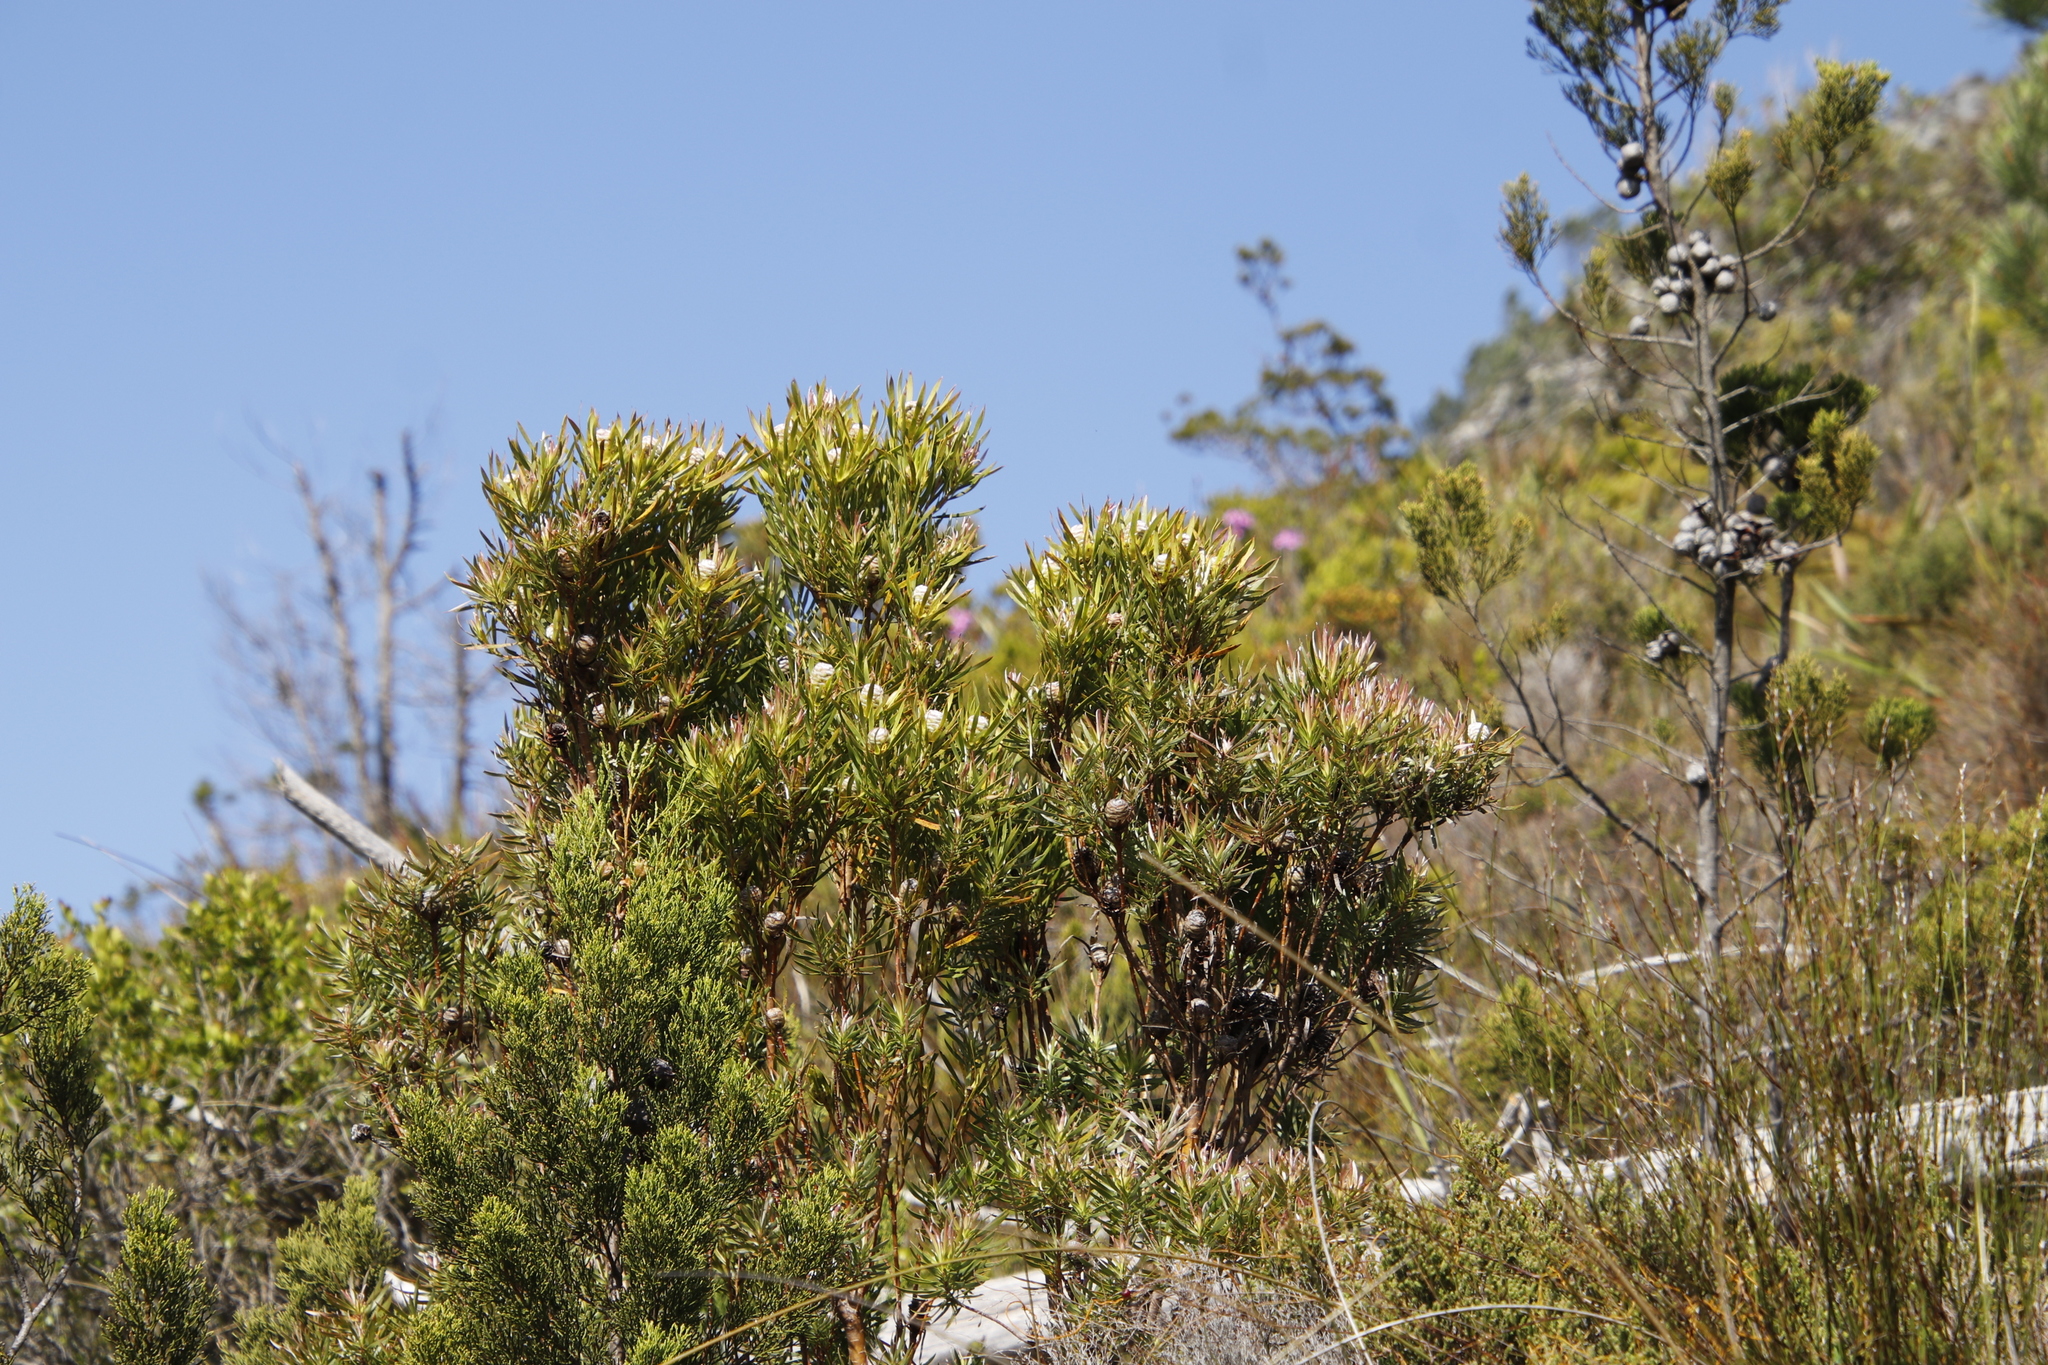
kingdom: Plantae
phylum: Tracheophyta
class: Magnoliopsida
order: Proteales
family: Proteaceae
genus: Leucadendron
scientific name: Leucadendron xanthoconus
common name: Sickle-leaf conebush
